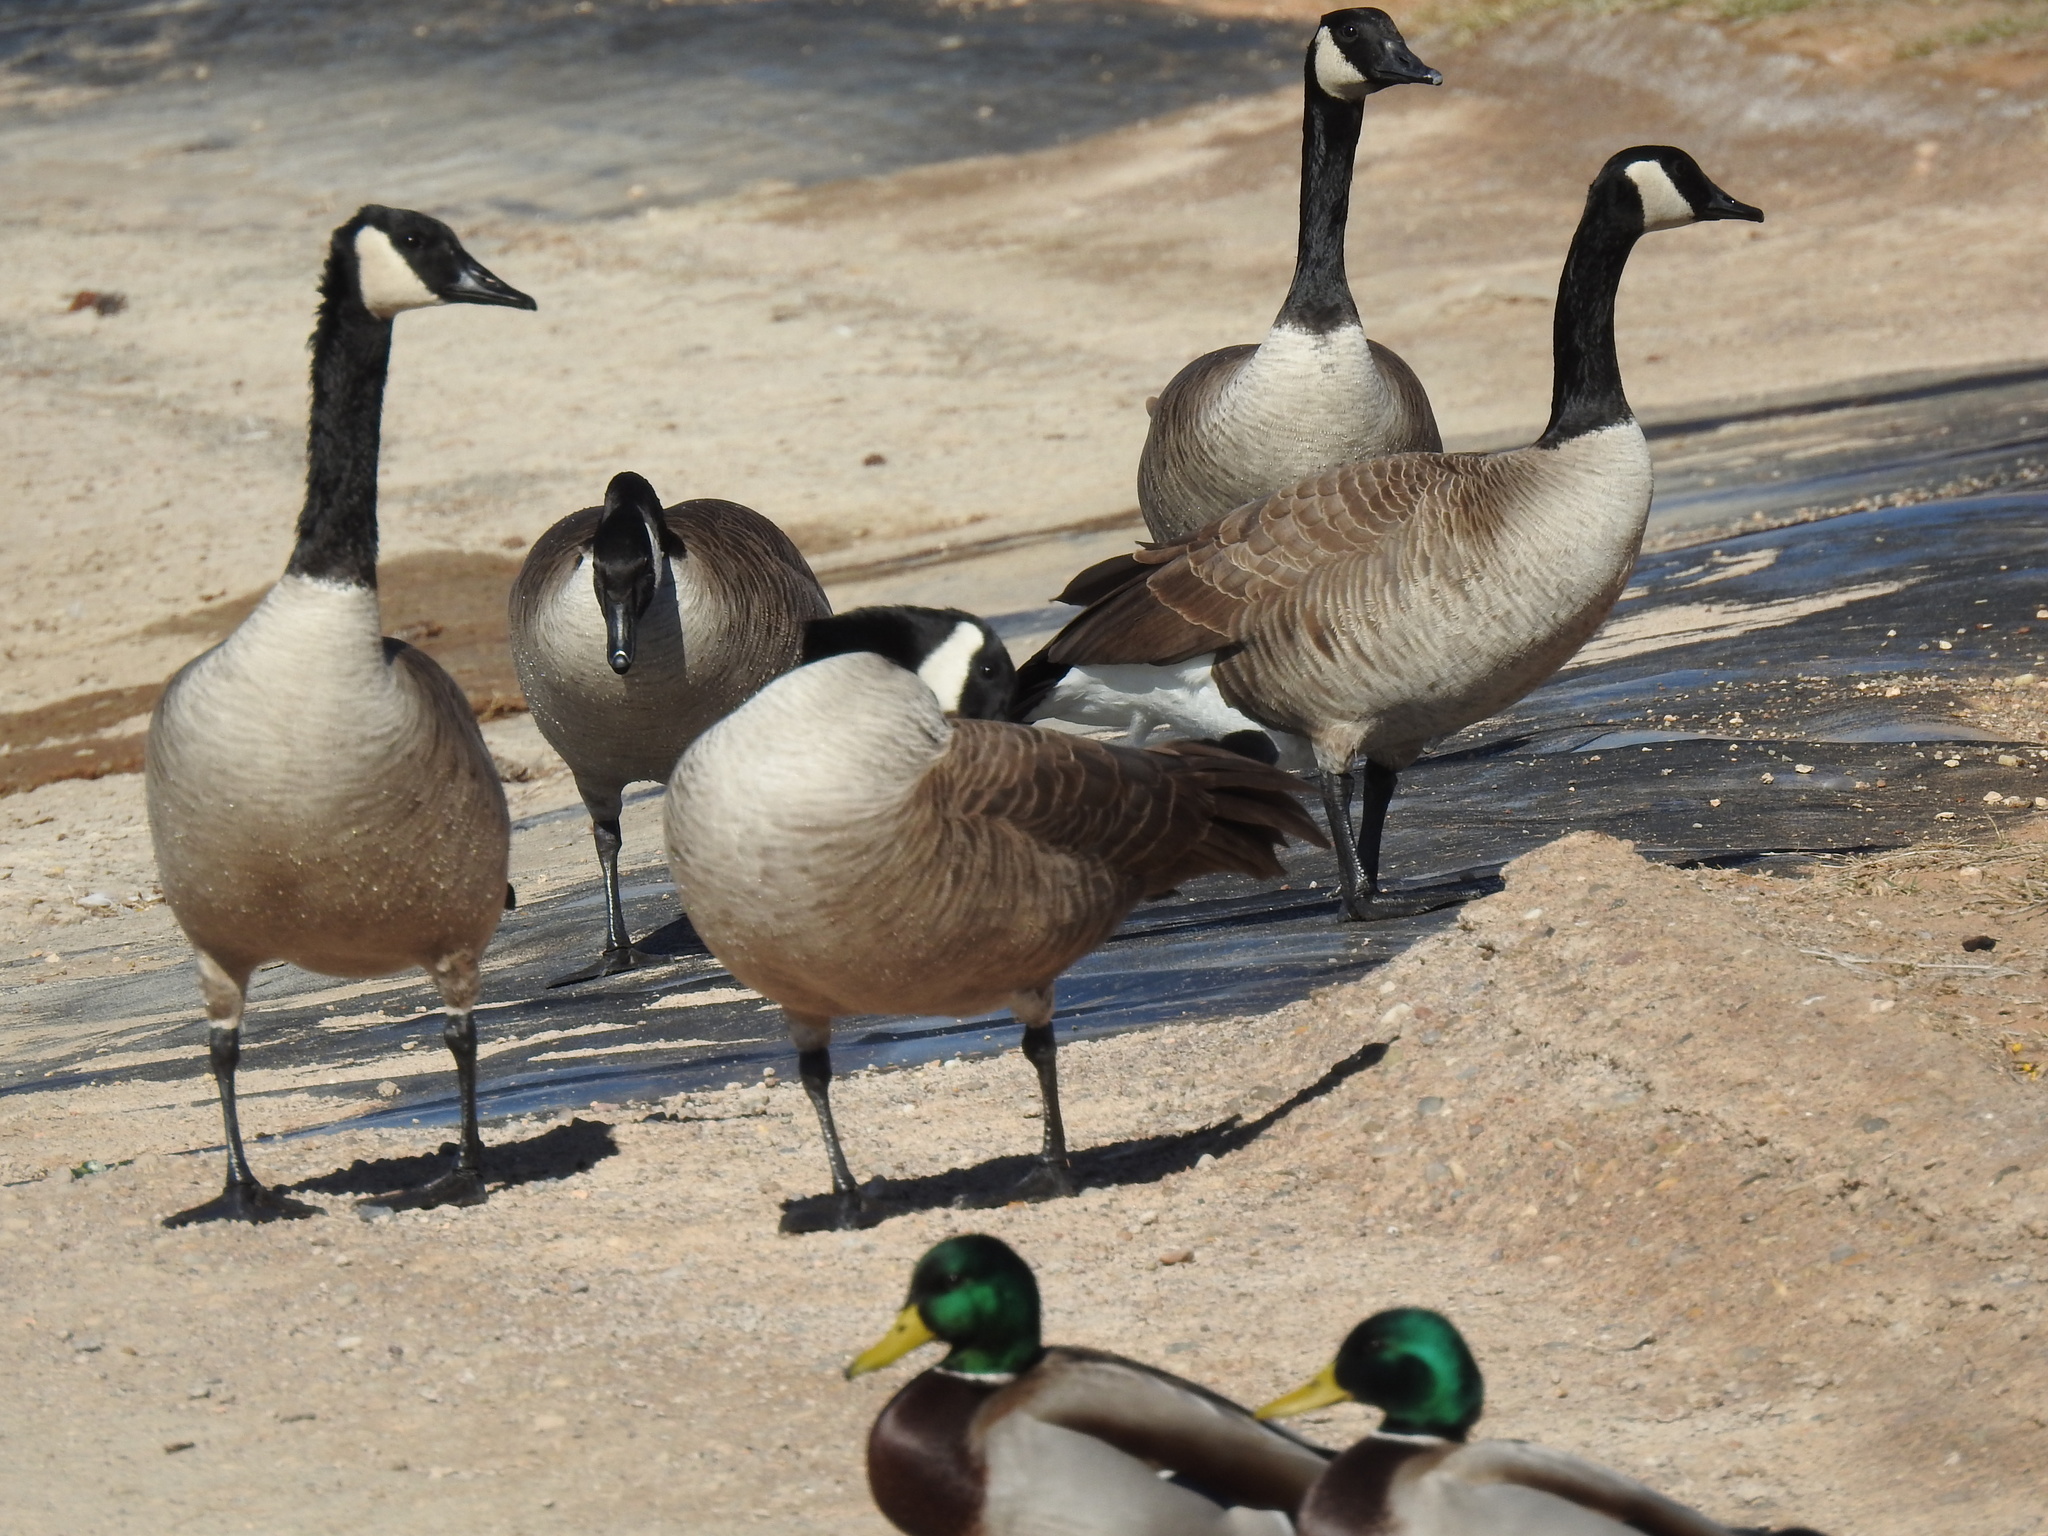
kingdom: Animalia
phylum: Chordata
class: Aves
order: Anseriformes
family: Anatidae
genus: Branta
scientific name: Branta canadensis
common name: Canada goose
